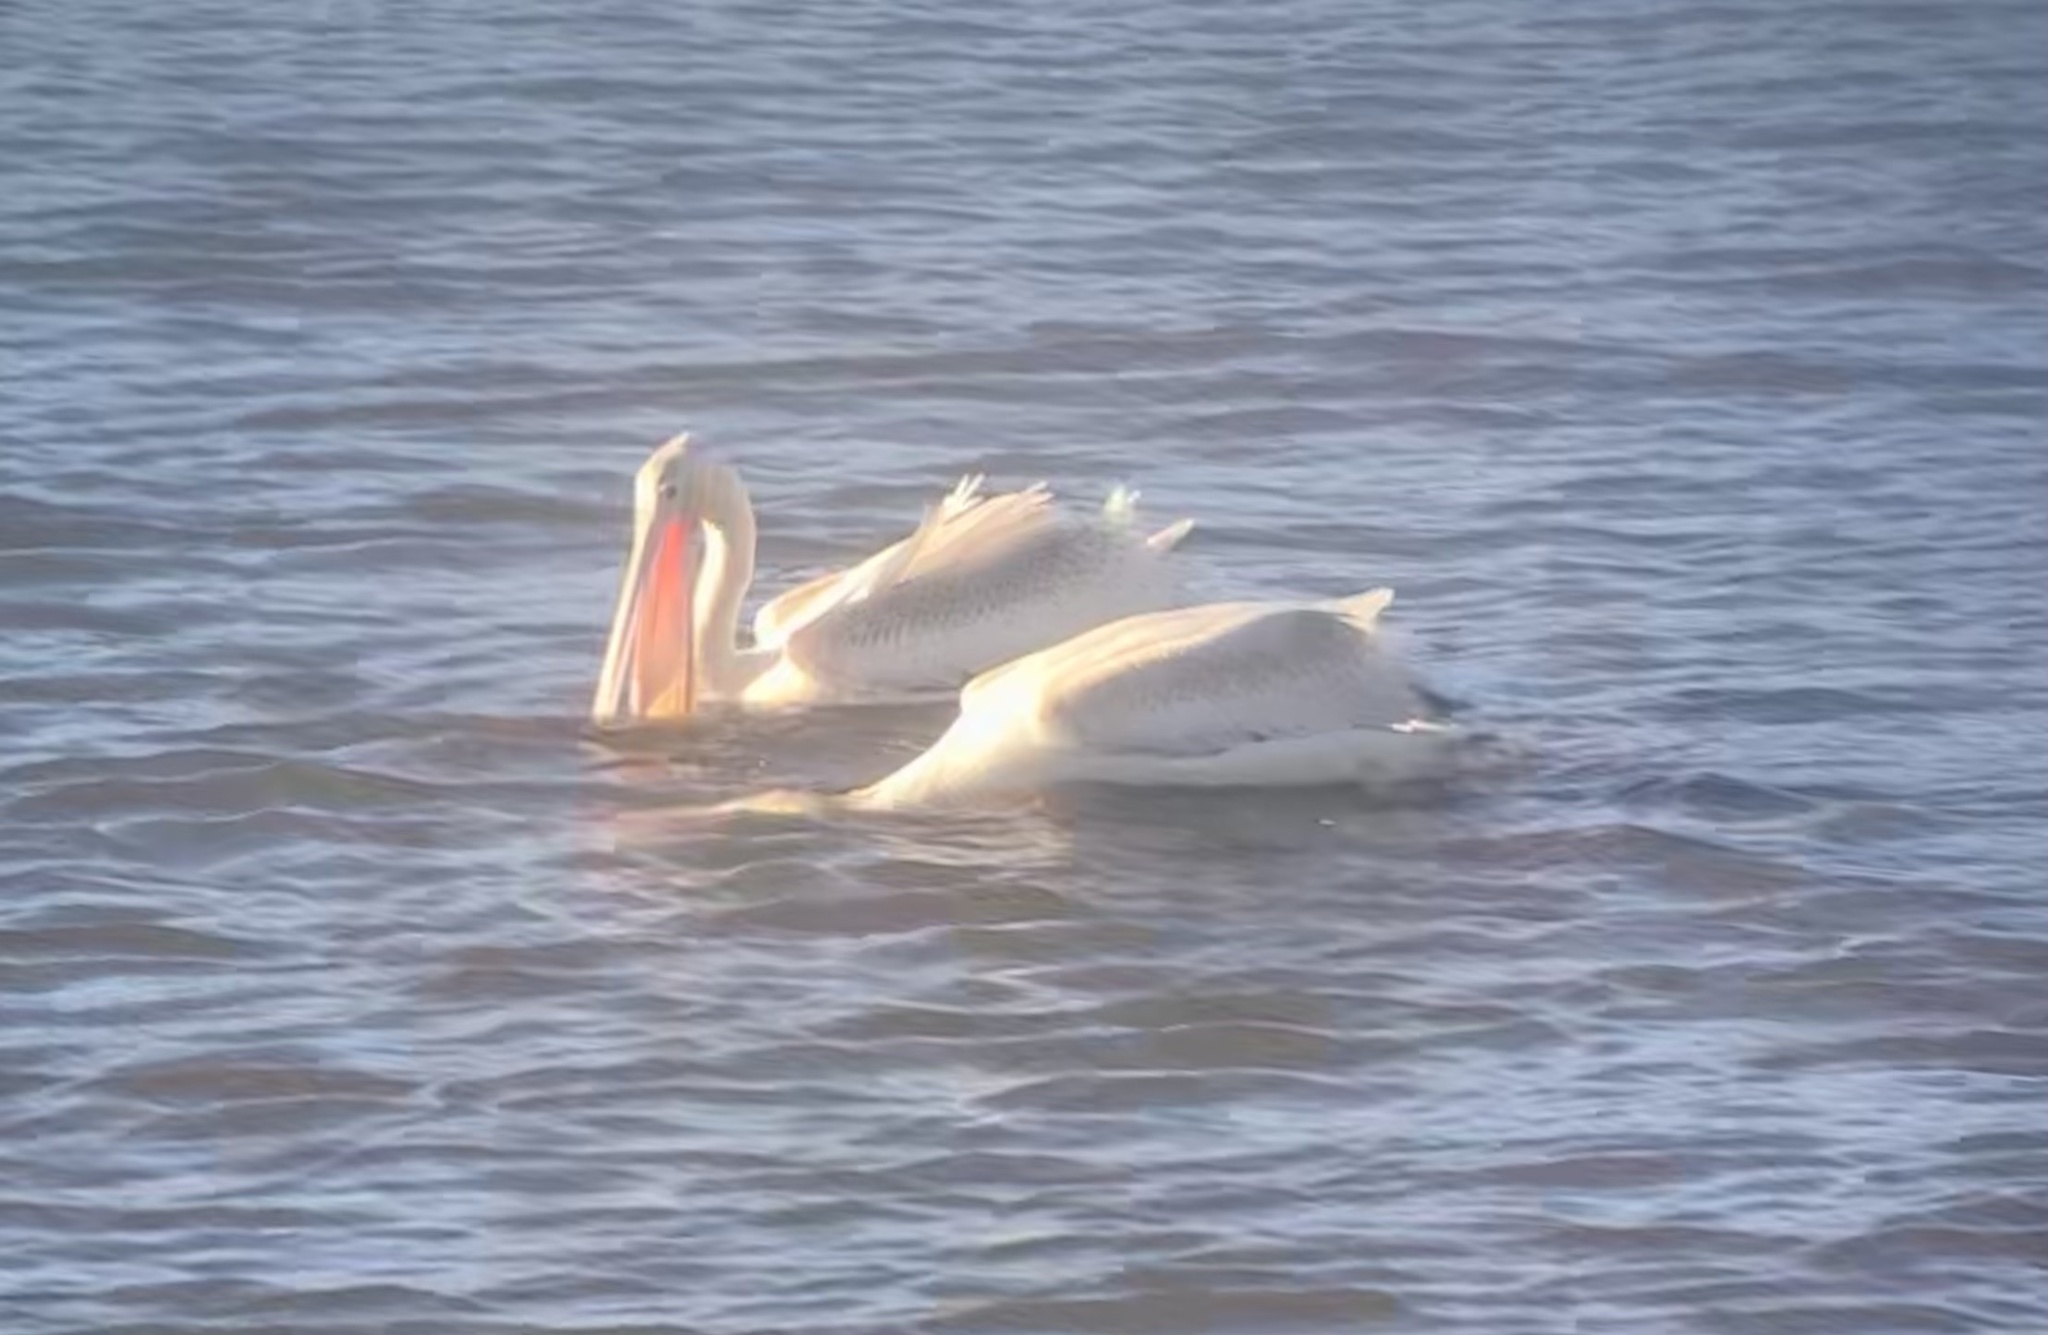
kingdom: Animalia
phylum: Chordata
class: Aves
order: Pelecaniformes
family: Pelecanidae
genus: Pelecanus
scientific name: Pelecanus erythrorhynchos
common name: American white pelican
